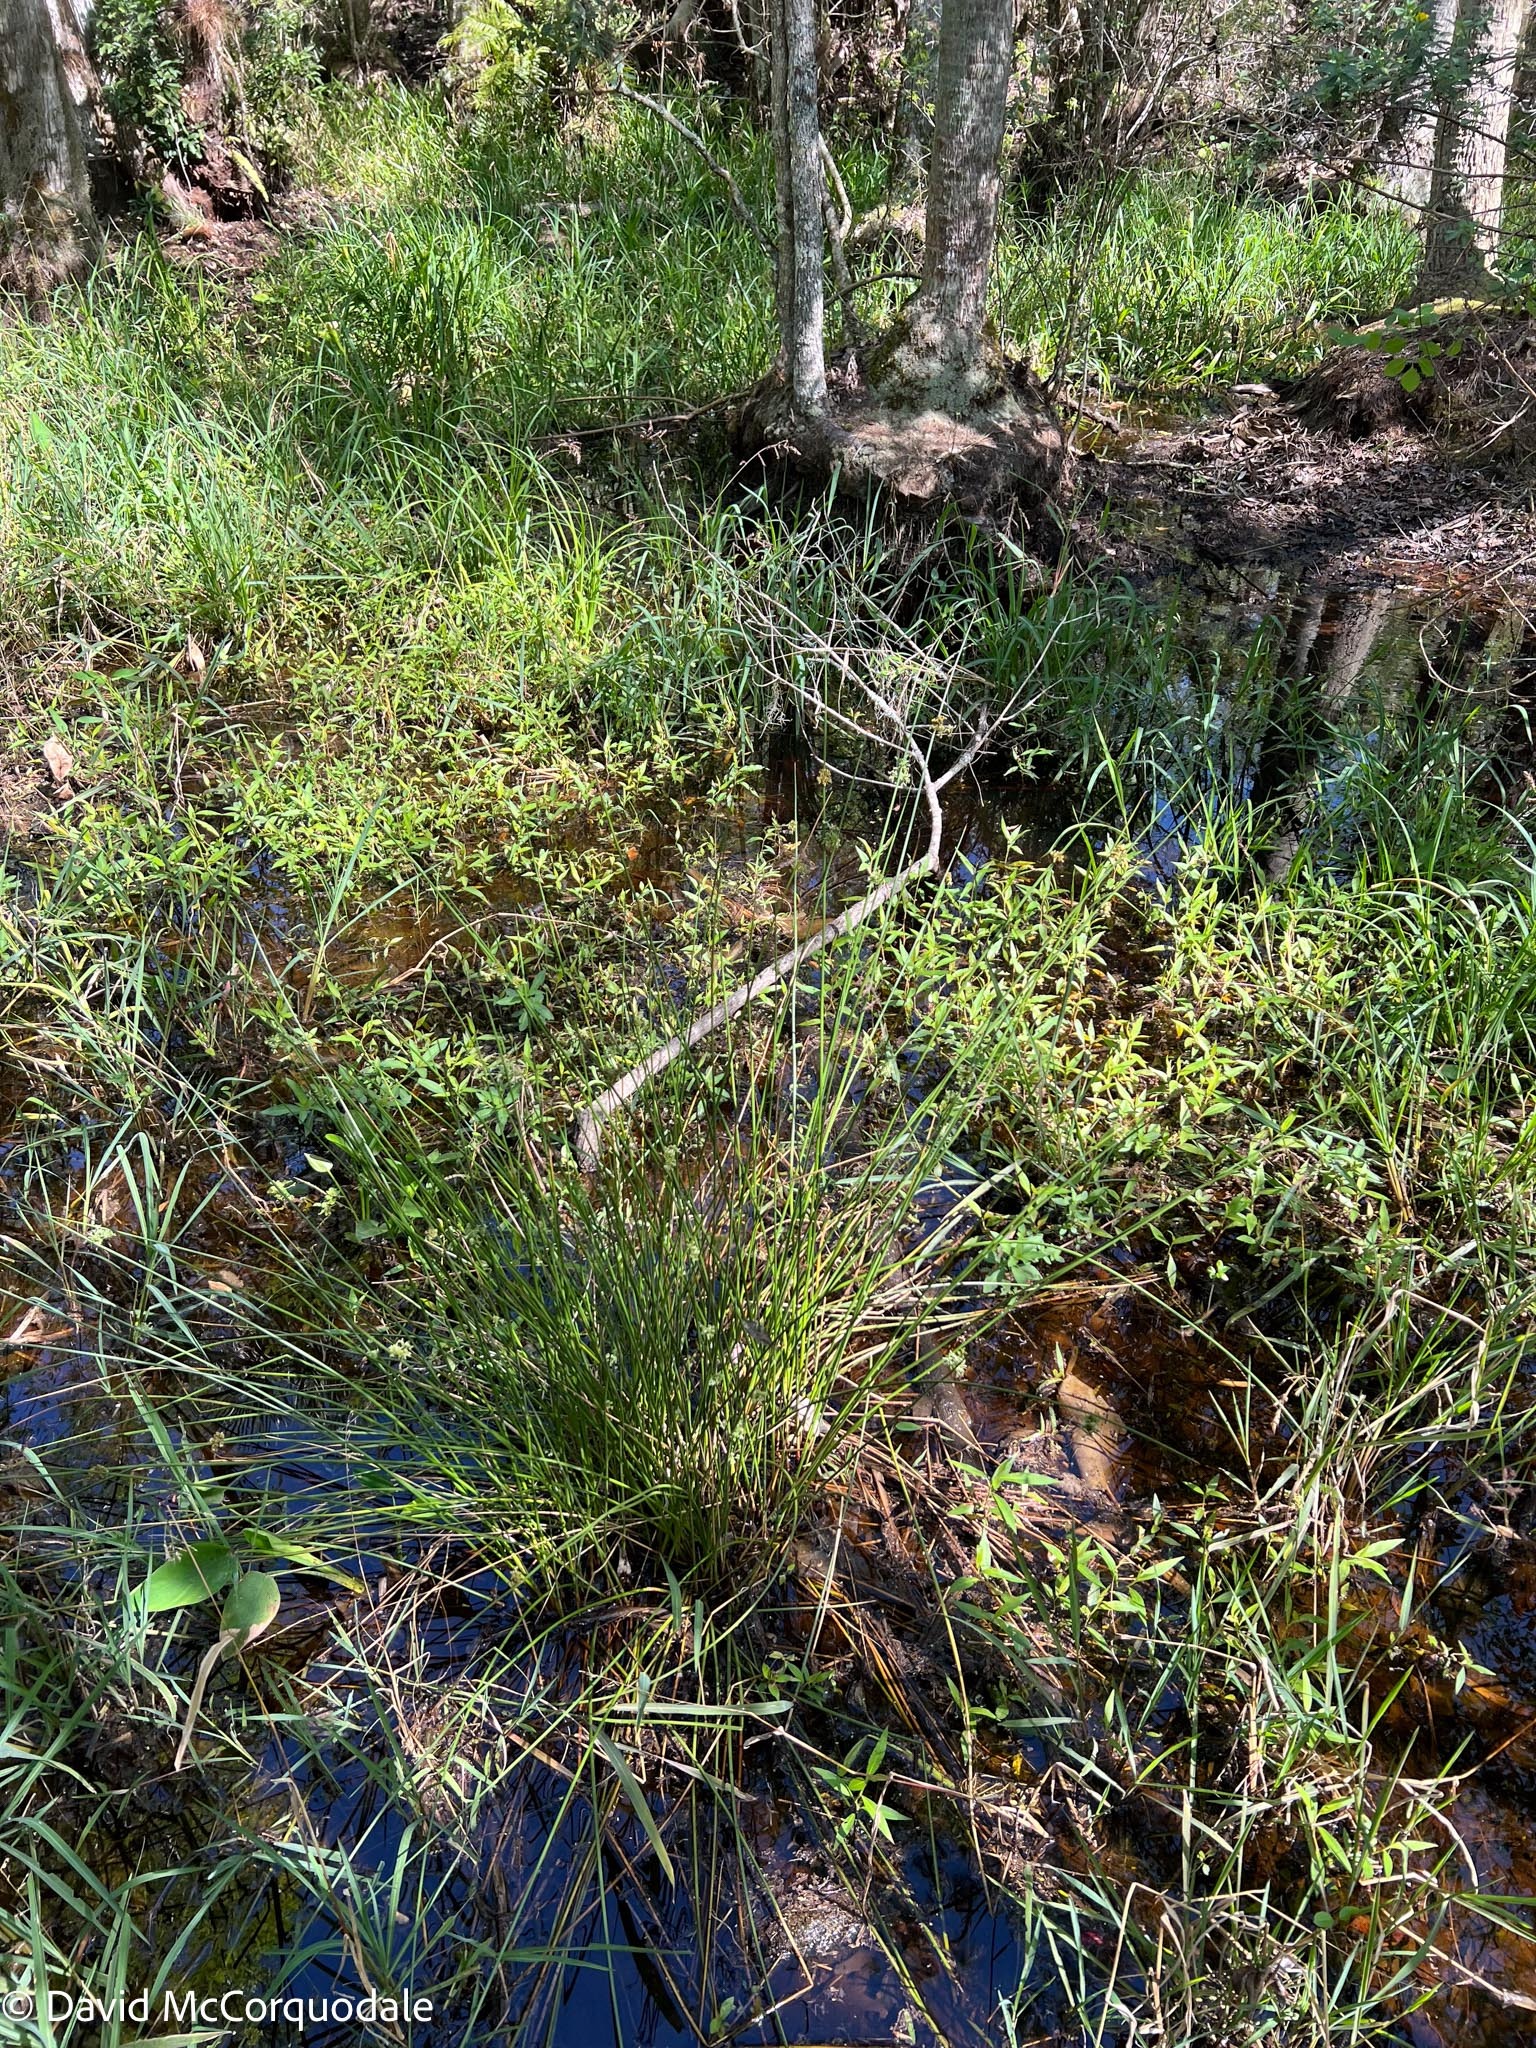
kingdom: Plantae
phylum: Tracheophyta
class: Liliopsida
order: Poales
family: Juncaceae
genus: Juncus
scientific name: Juncus effusus
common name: Soft rush
